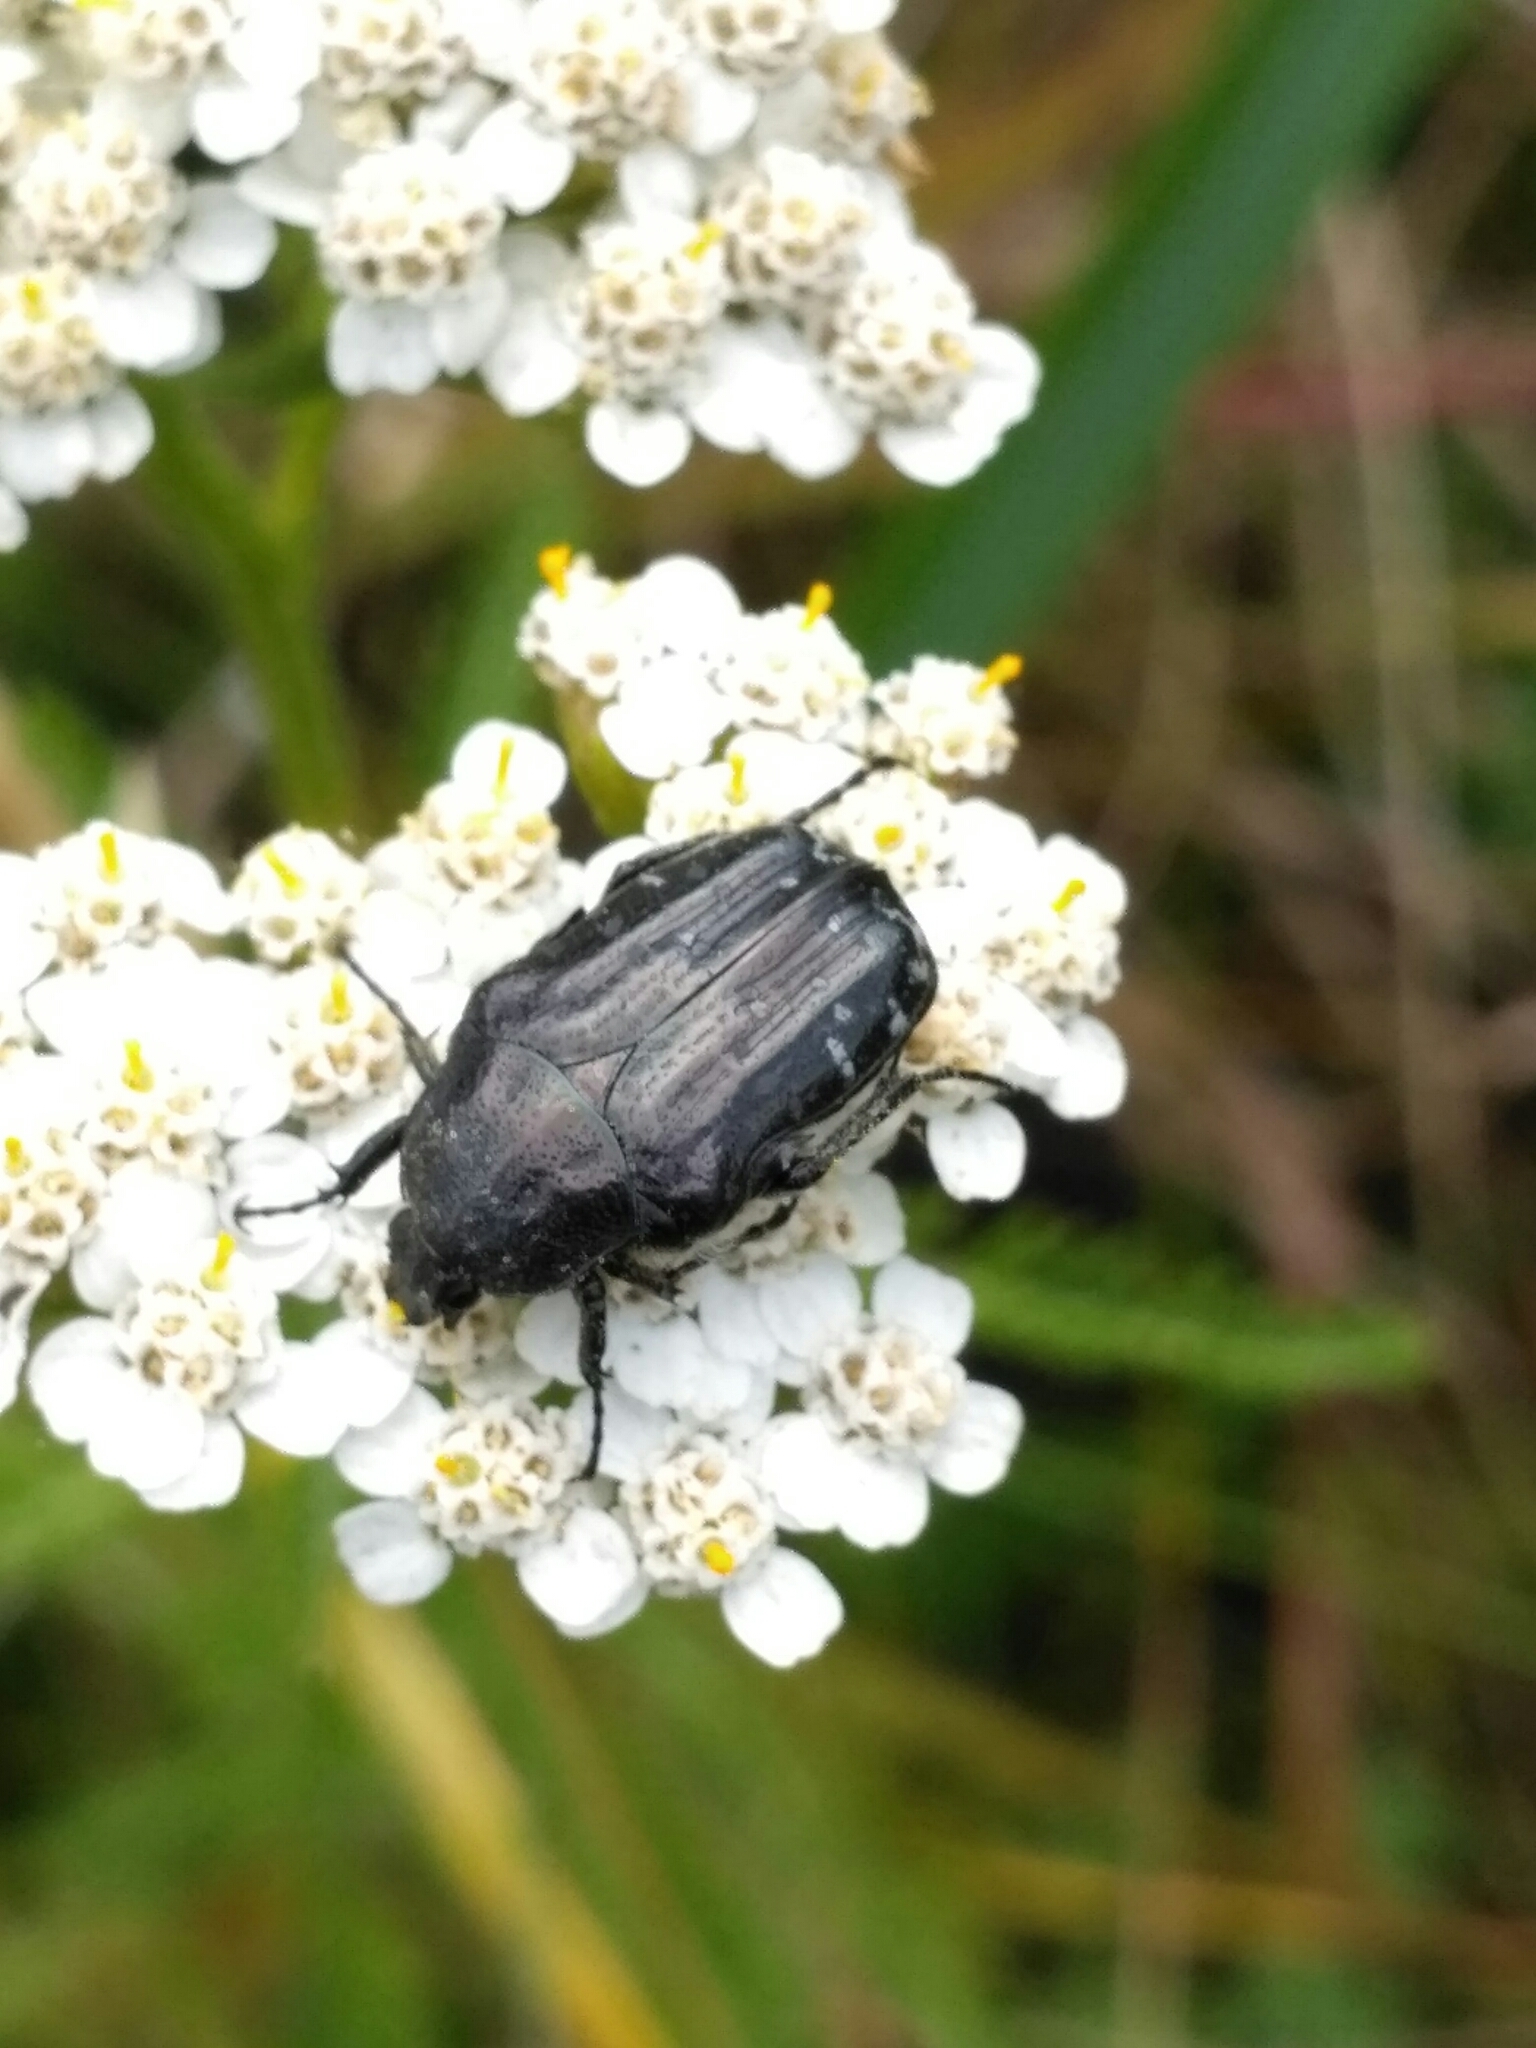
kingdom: Animalia
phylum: Arthropoda
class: Insecta
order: Coleoptera
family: Scarabaeidae
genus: Oxythyrea
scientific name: Oxythyrea funesta
